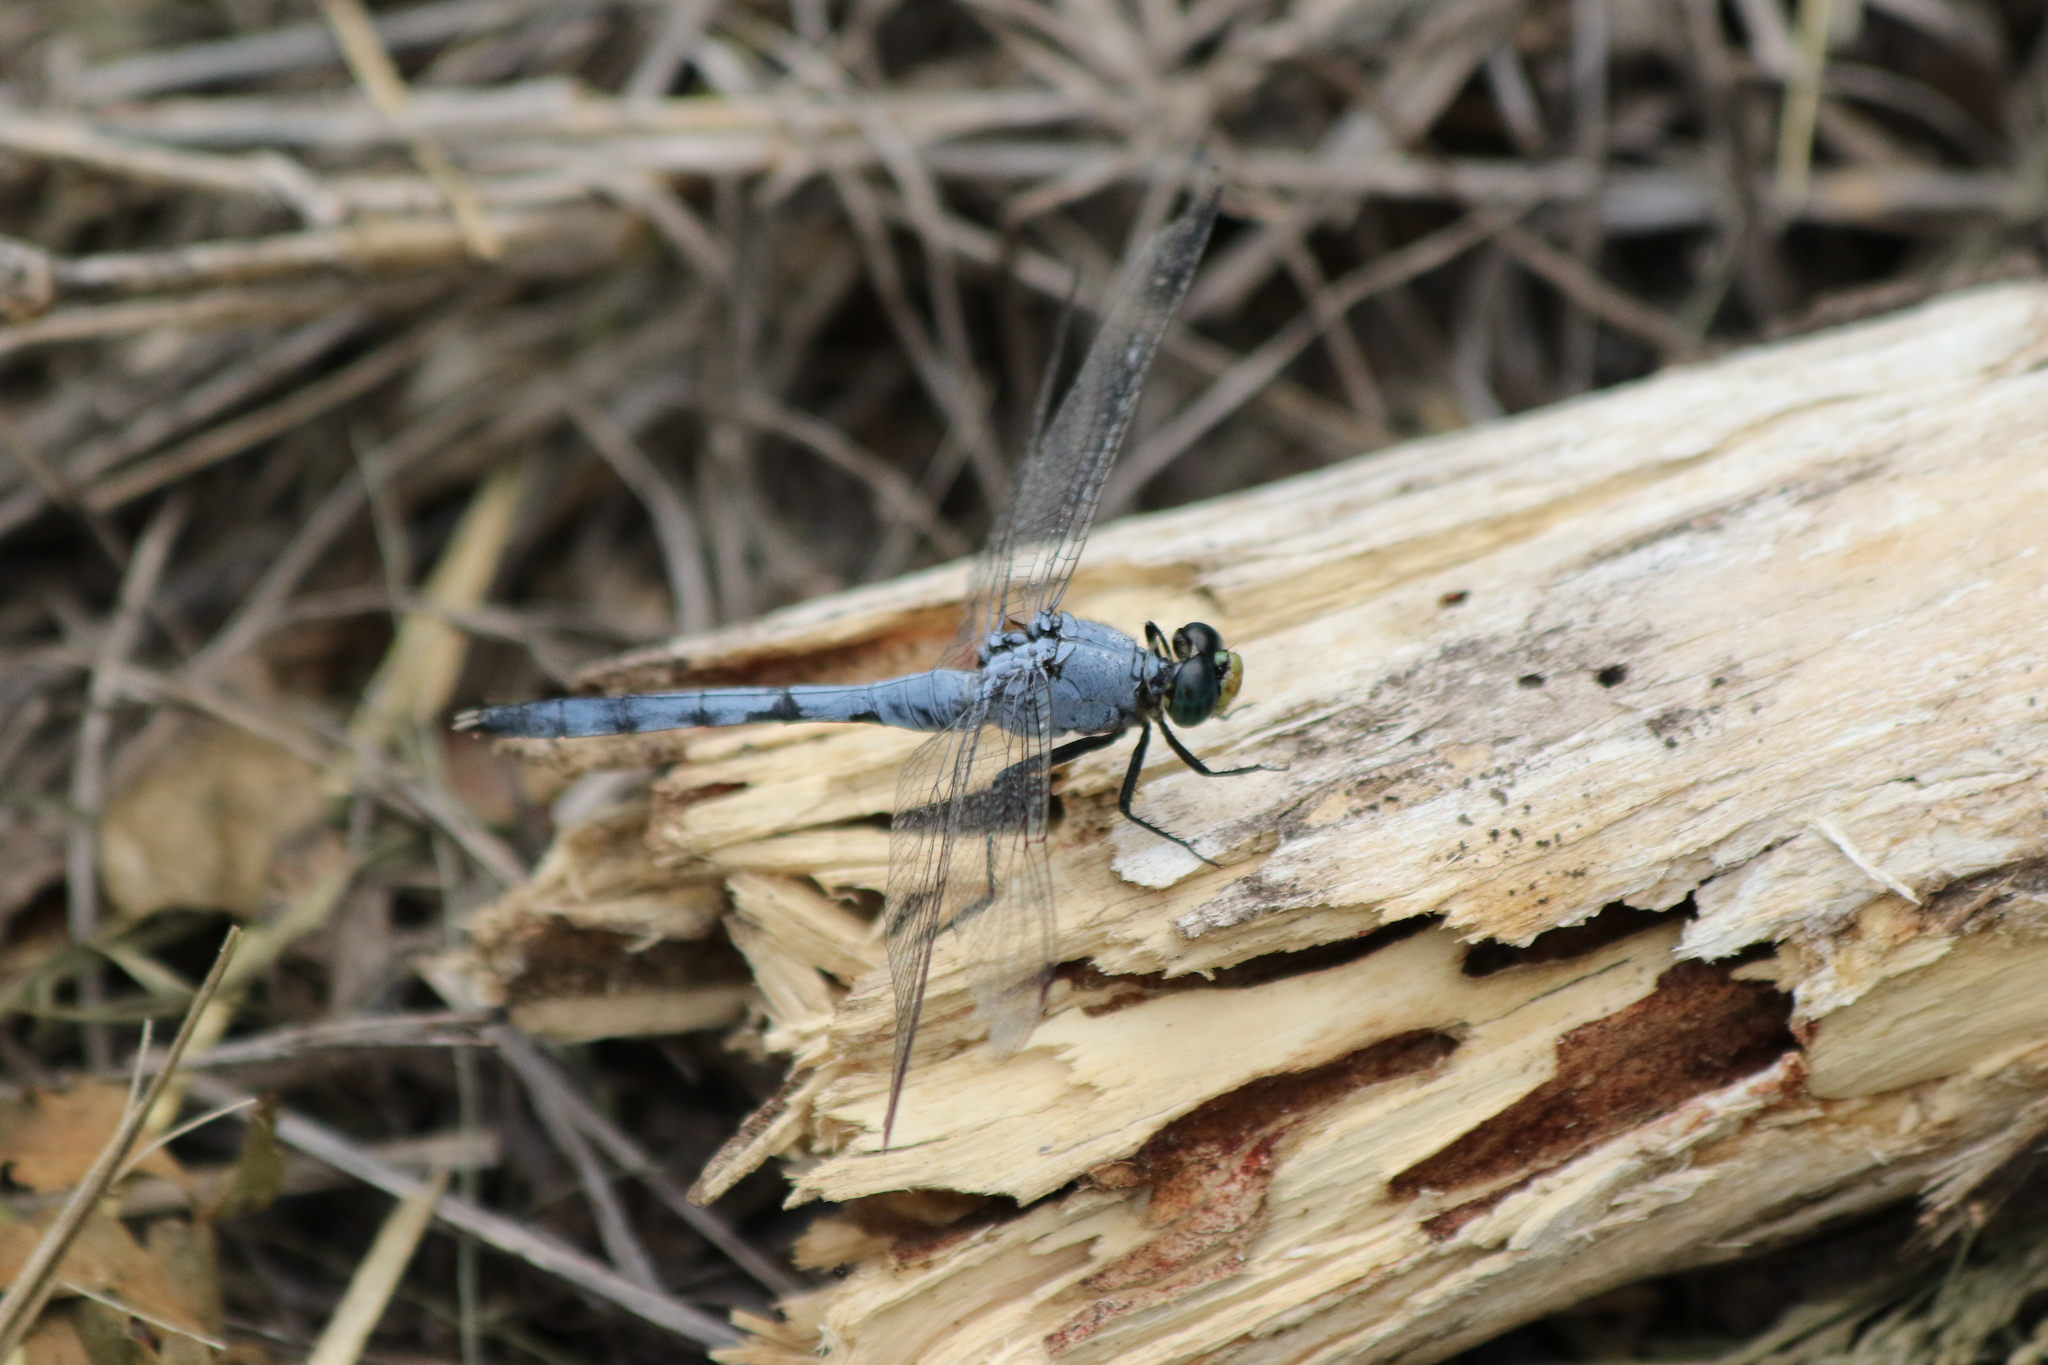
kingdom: Animalia
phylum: Arthropoda
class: Insecta
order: Odonata
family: Libellulidae
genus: Erythemis
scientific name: Erythemis simplicicollis
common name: Eastern pondhawk
